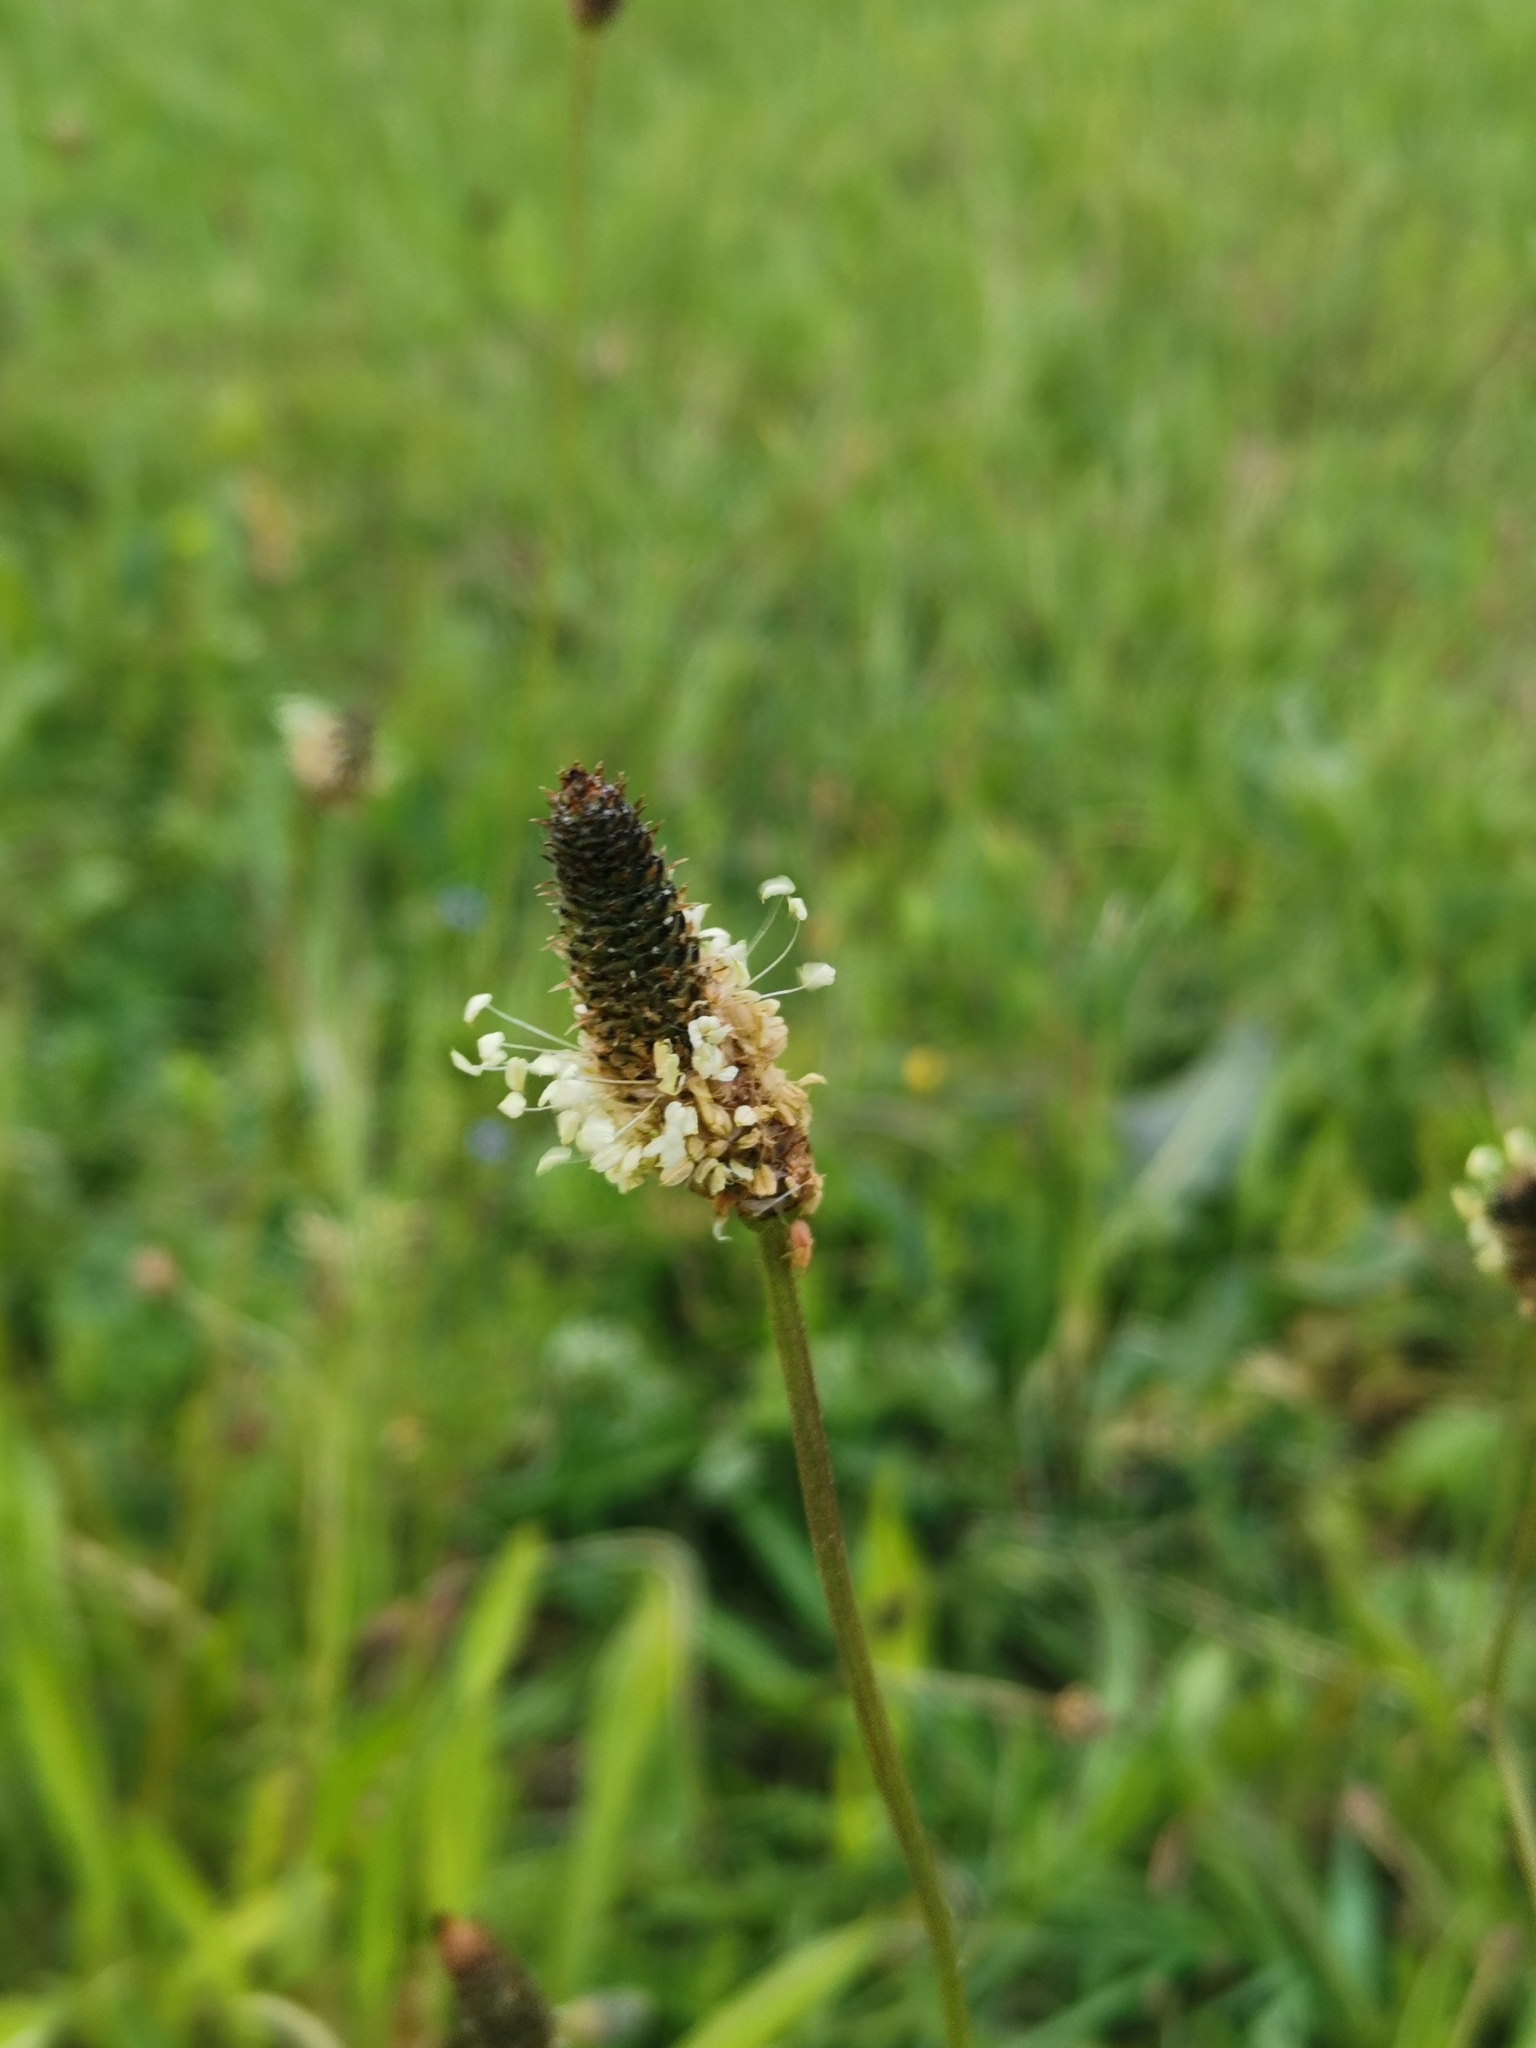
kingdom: Plantae
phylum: Tracheophyta
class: Magnoliopsida
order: Lamiales
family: Plantaginaceae
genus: Plantago
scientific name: Plantago lanceolata
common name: Ribwort plantain
